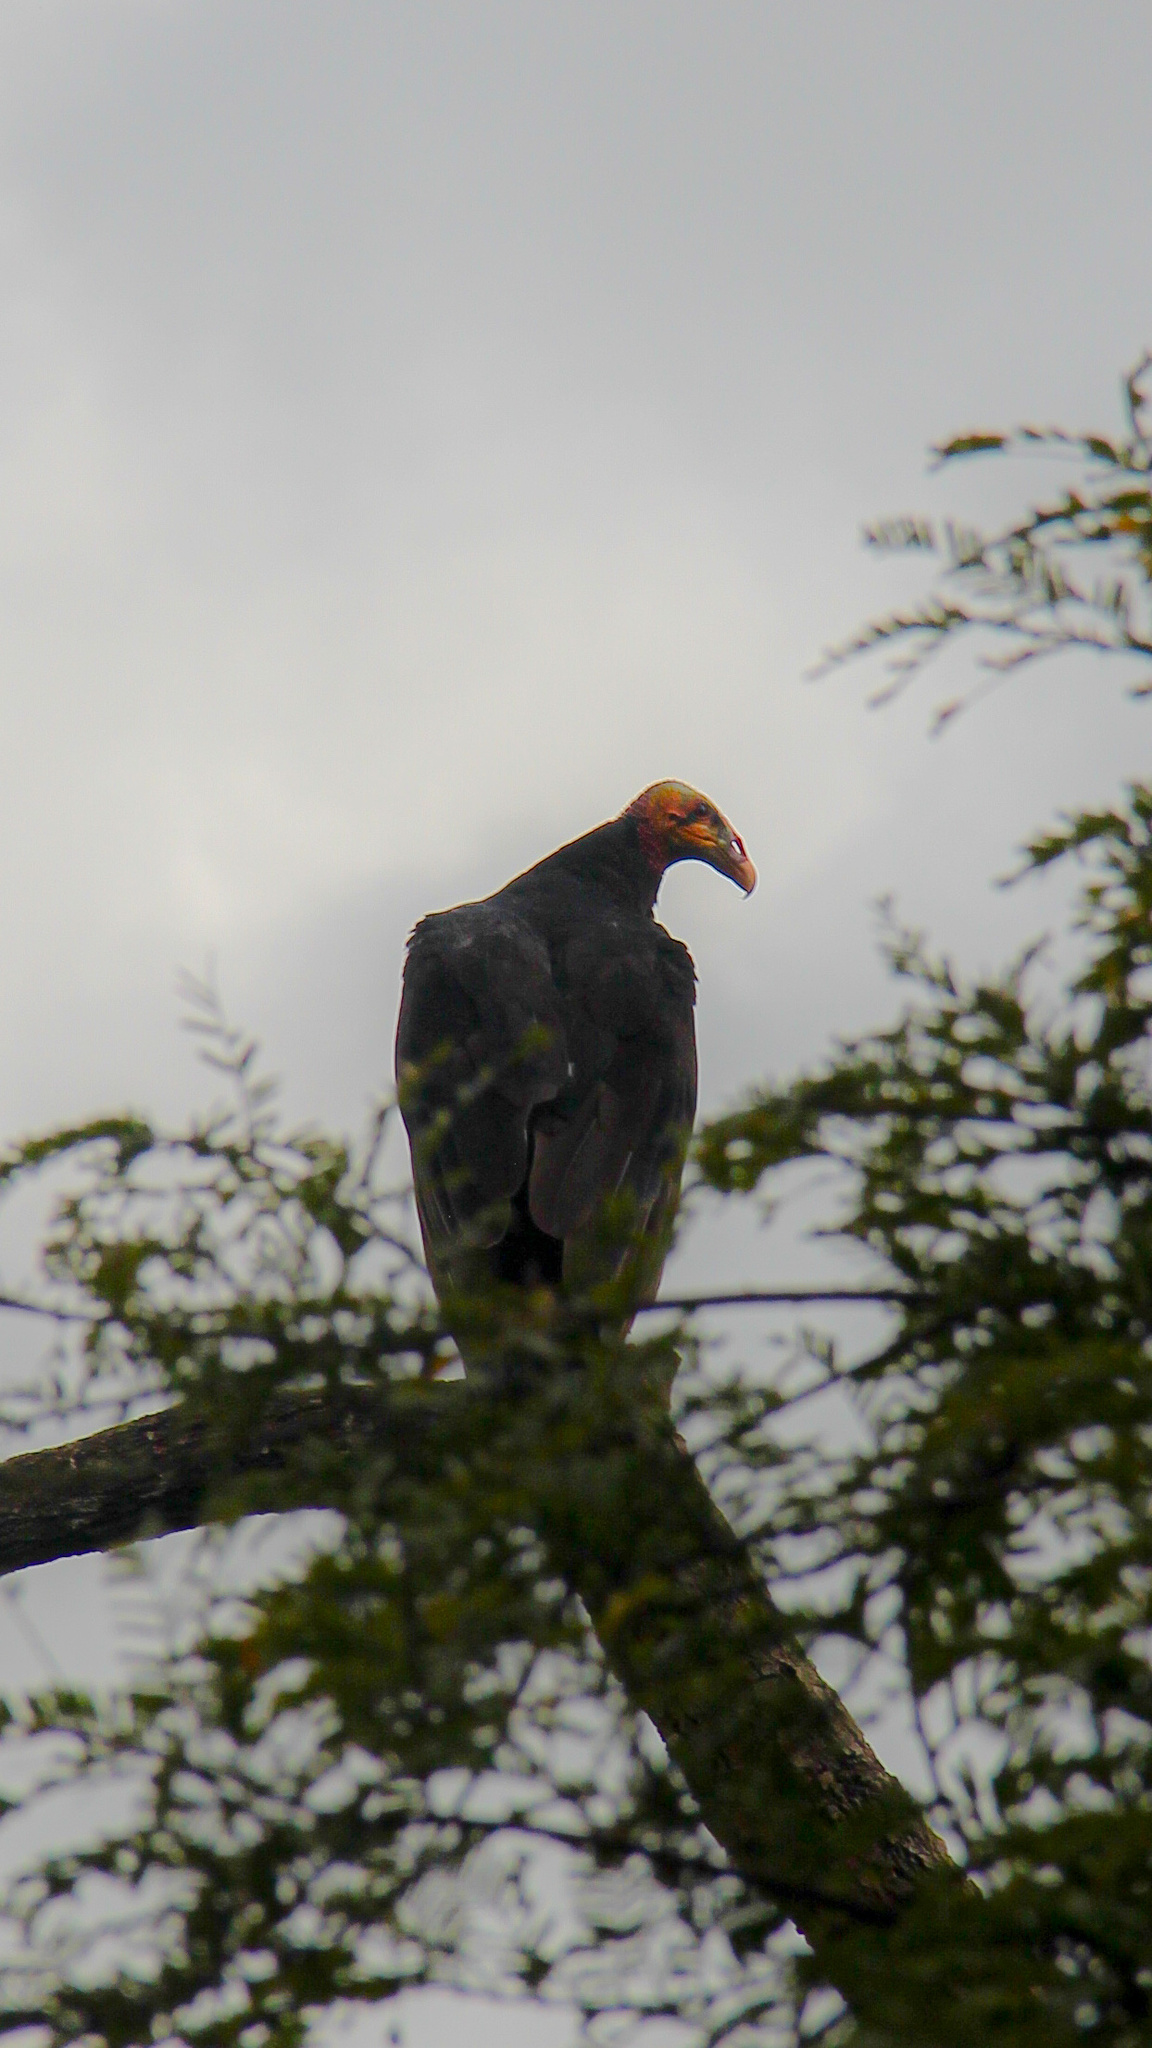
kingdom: Animalia
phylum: Chordata
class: Aves
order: Accipitriformes
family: Cathartidae
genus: Cathartes
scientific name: Cathartes burrovianus
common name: Lesser yellow-headed vulture
